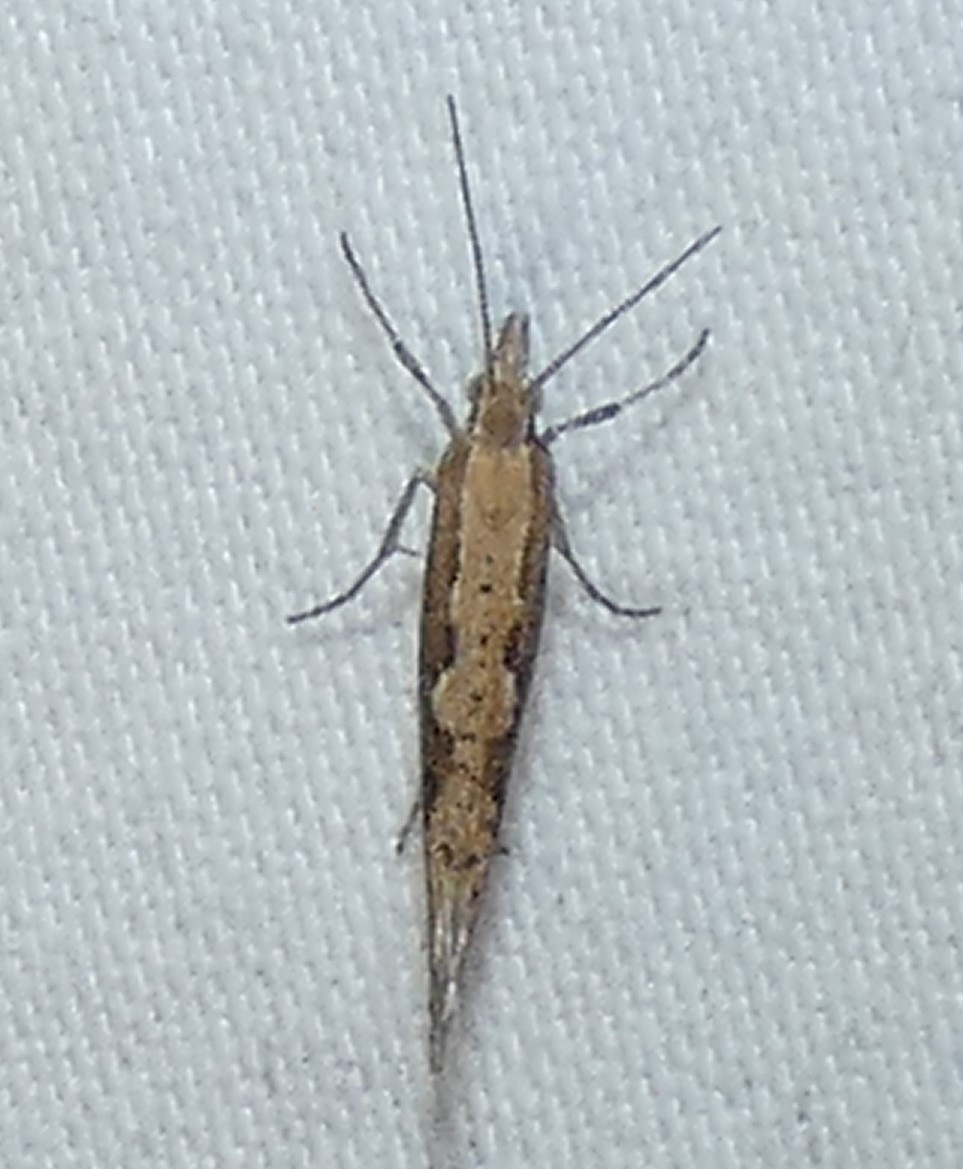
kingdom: Animalia
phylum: Arthropoda
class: Insecta
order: Lepidoptera
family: Plutellidae
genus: Plutella
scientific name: Plutella xylostella
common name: Diamond-back moth
